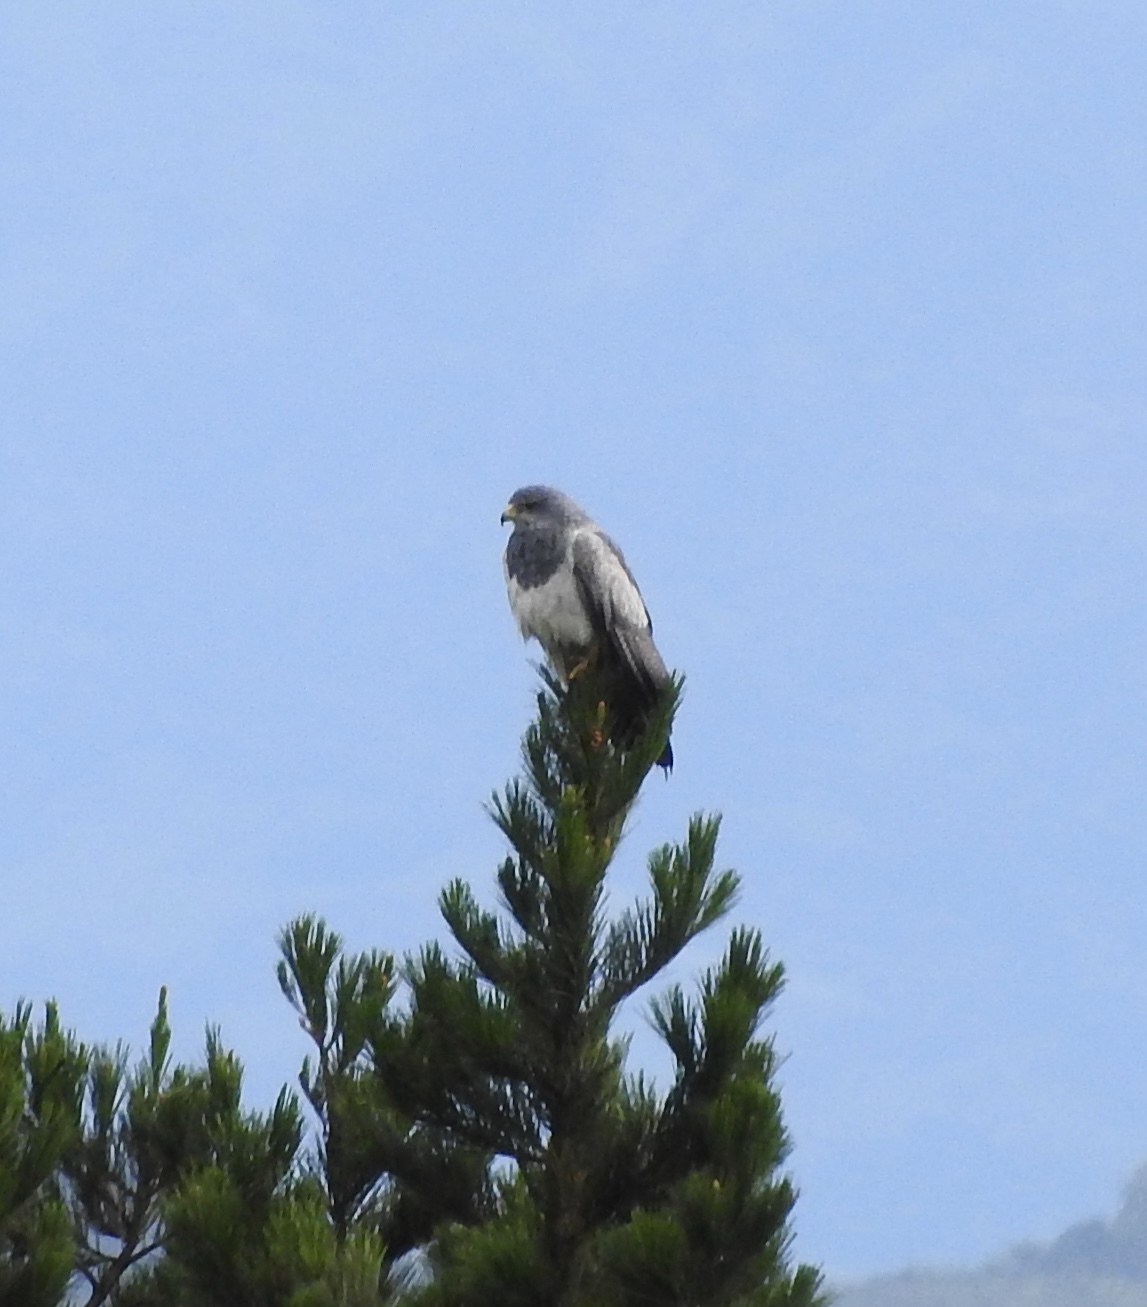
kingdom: Animalia
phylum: Chordata
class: Aves
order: Accipitriformes
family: Accipitridae
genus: Geranoaetus
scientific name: Geranoaetus melanoleucus
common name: Black-chested buzzard-eagle
